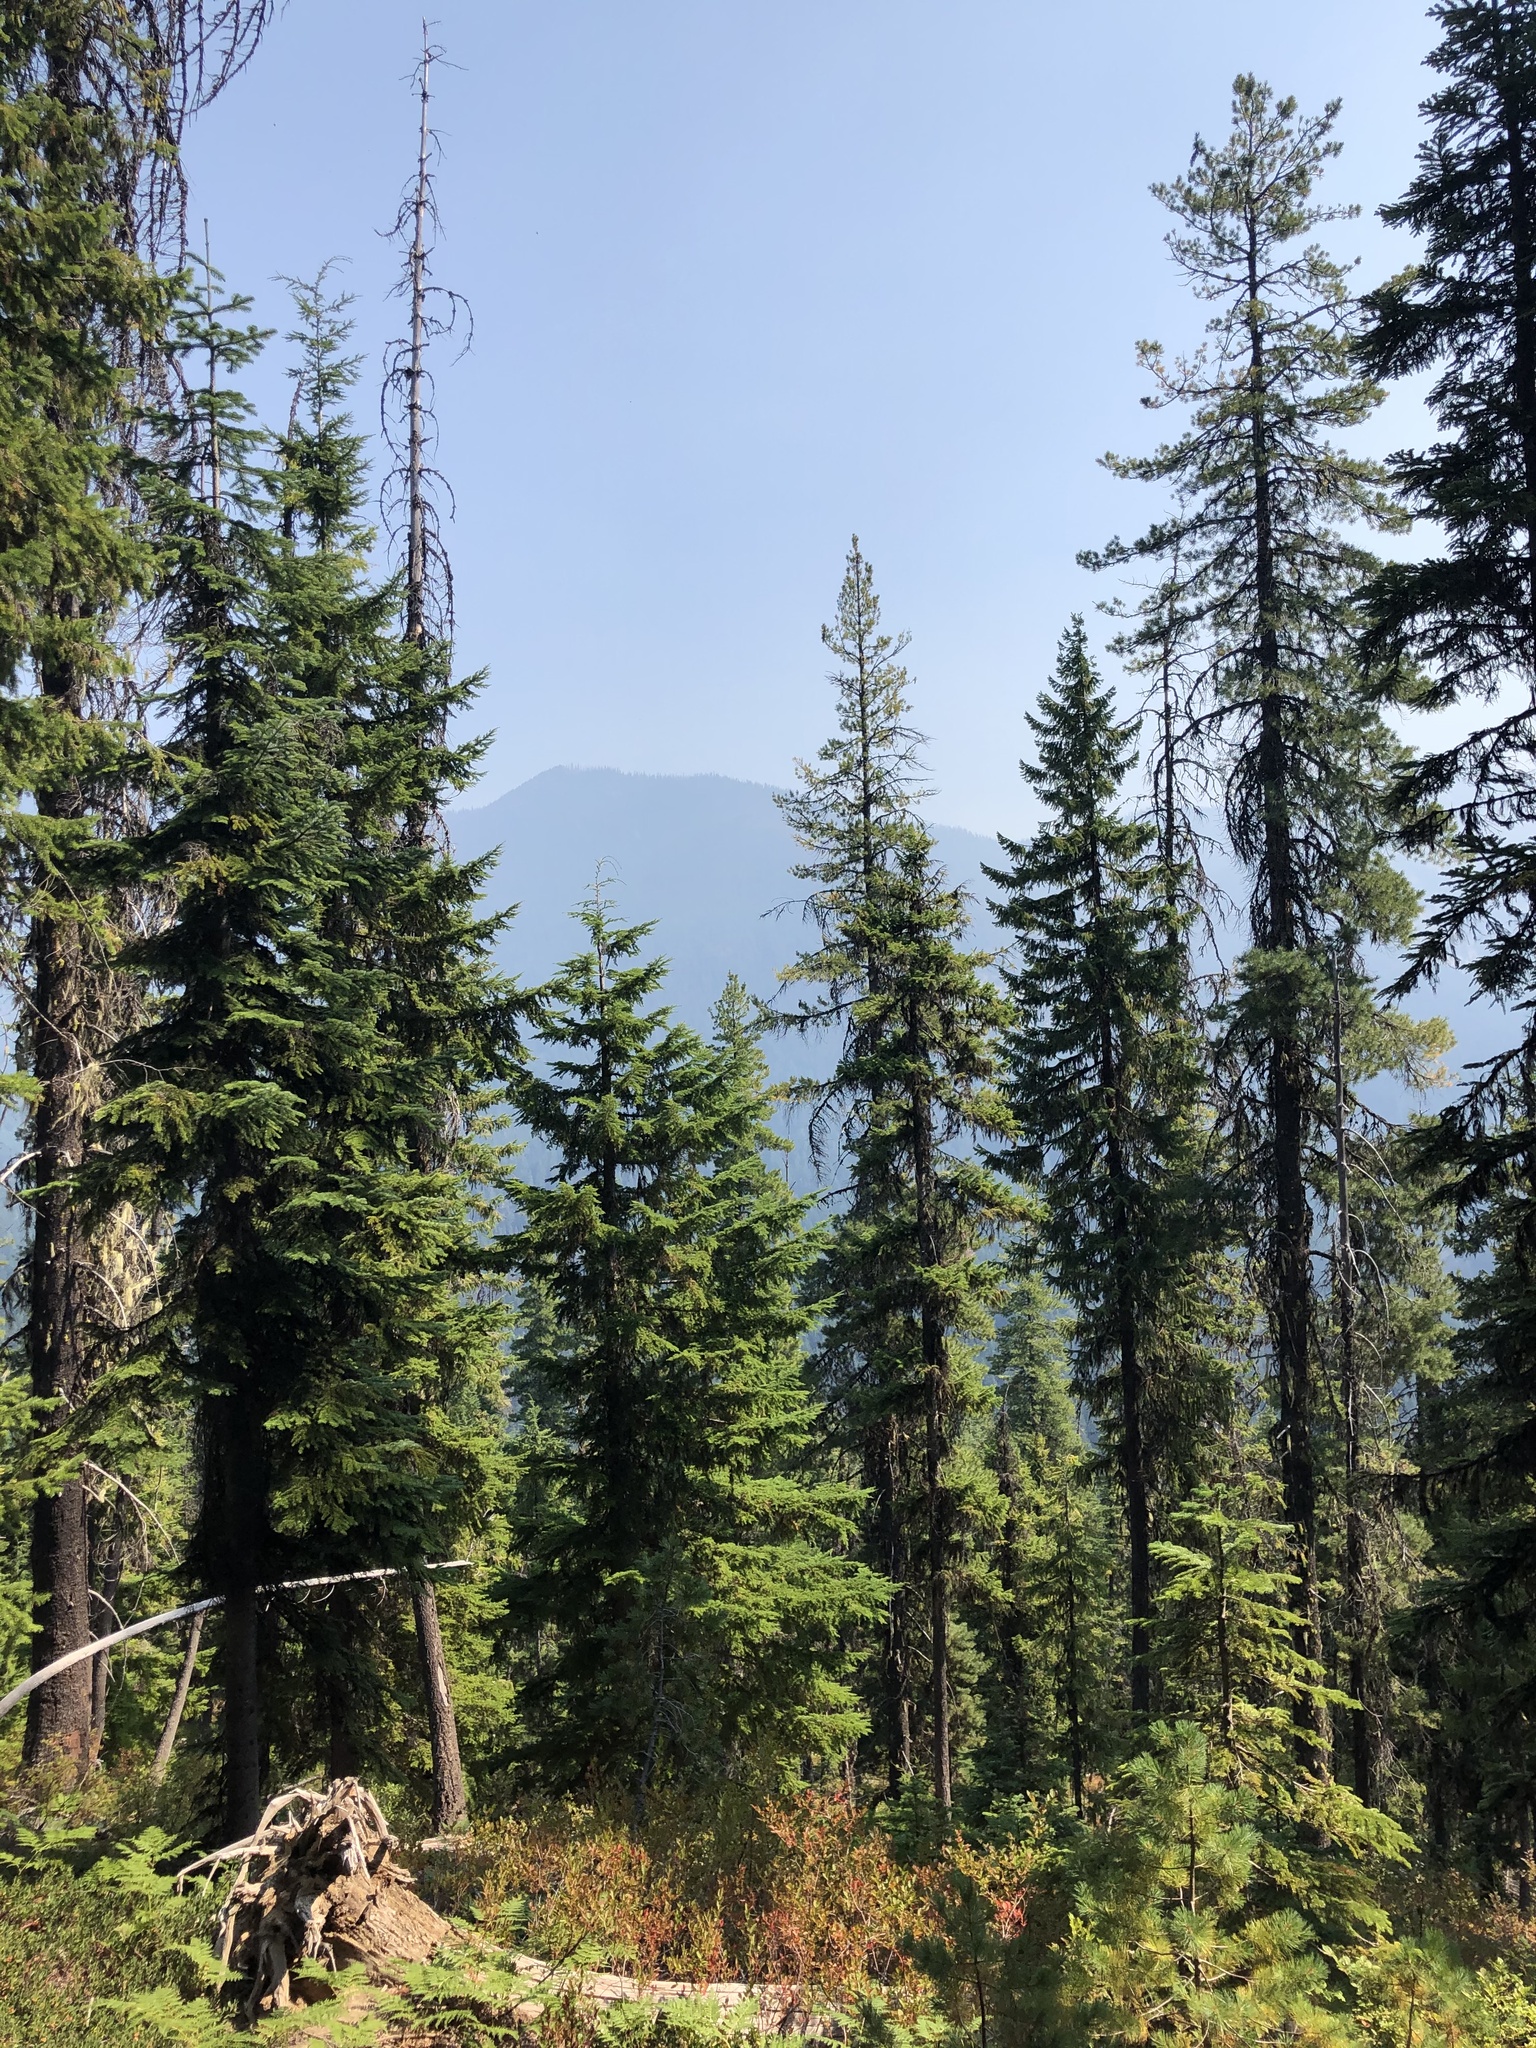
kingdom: Plantae
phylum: Tracheophyta
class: Pinopsida
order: Pinales
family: Pinaceae
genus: Pinus
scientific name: Pinus monticola
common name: Western white pine
